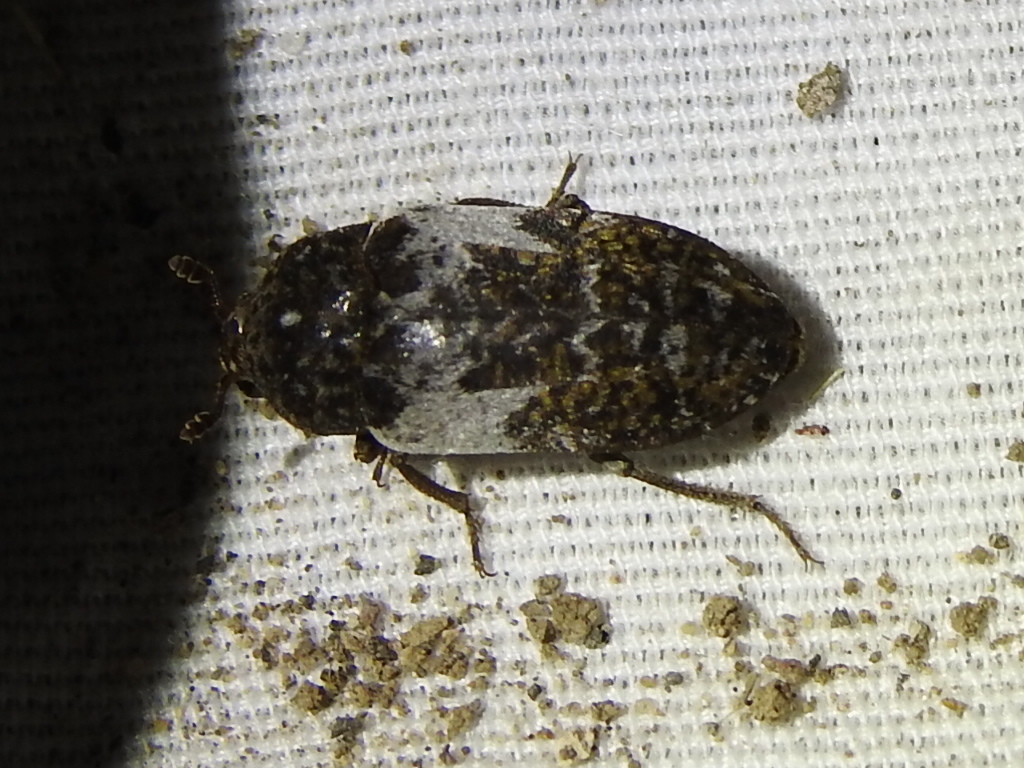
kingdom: Animalia
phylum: Arthropoda
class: Insecta
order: Coleoptera
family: Dermestidae
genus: Dermestes
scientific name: Dermestes marmoratus
